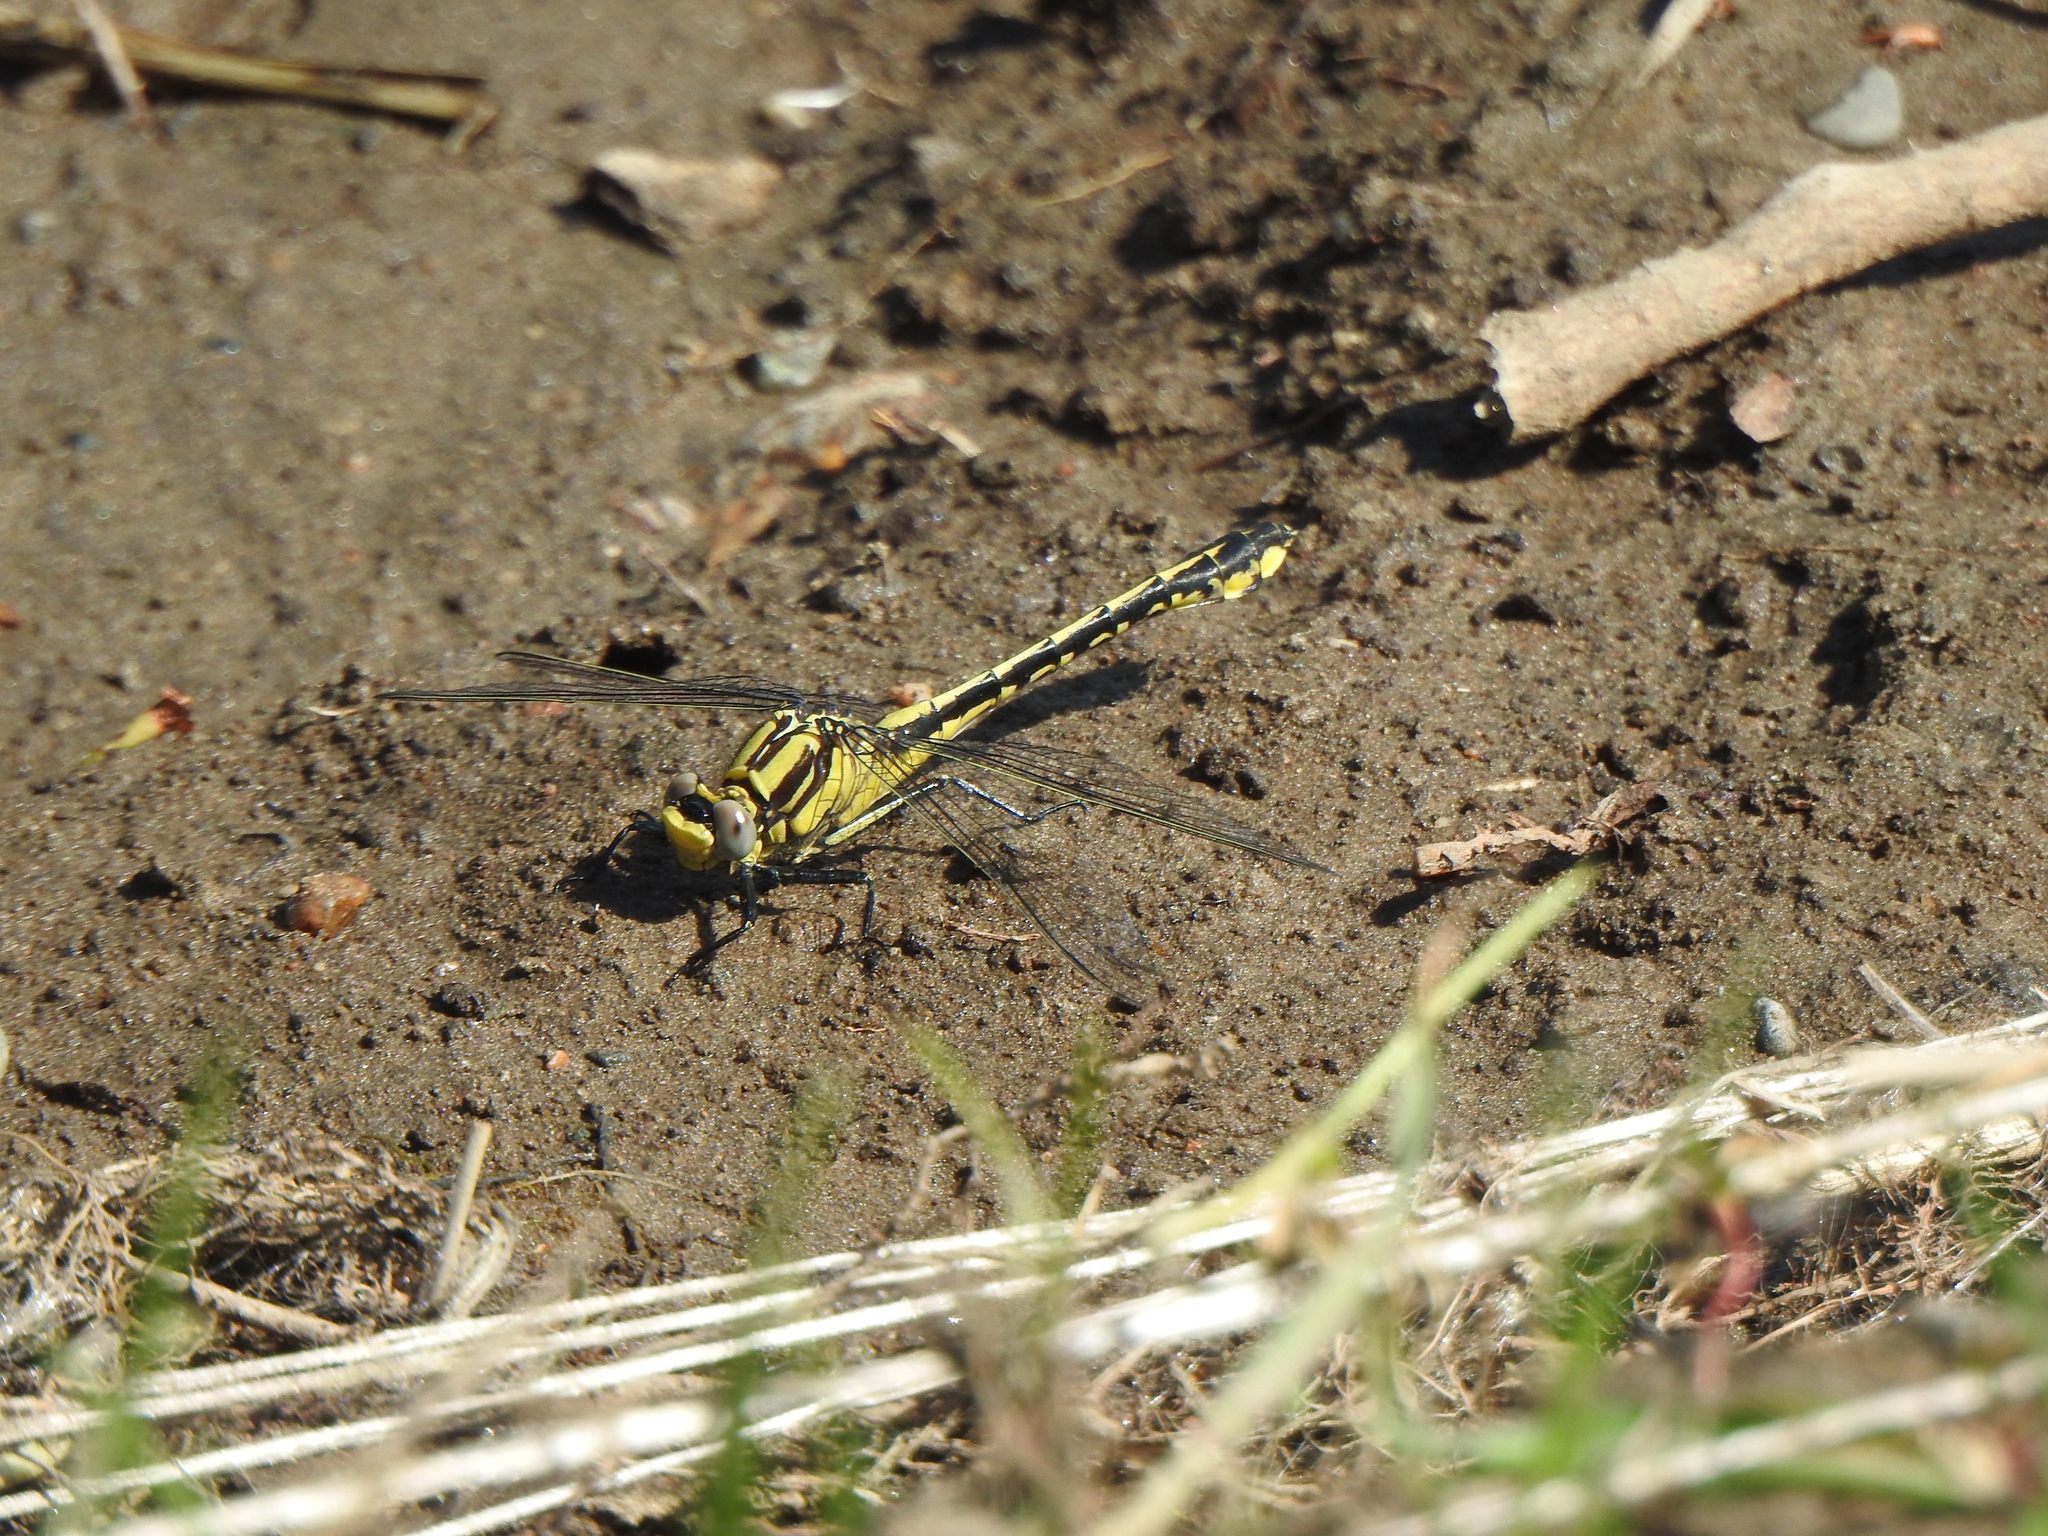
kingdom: Animalia
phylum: Arthropoda
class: Insecta
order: Odonata
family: Gomphidae
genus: Gomphurus
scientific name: Gomphurus fraternus
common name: Midland clubtail
